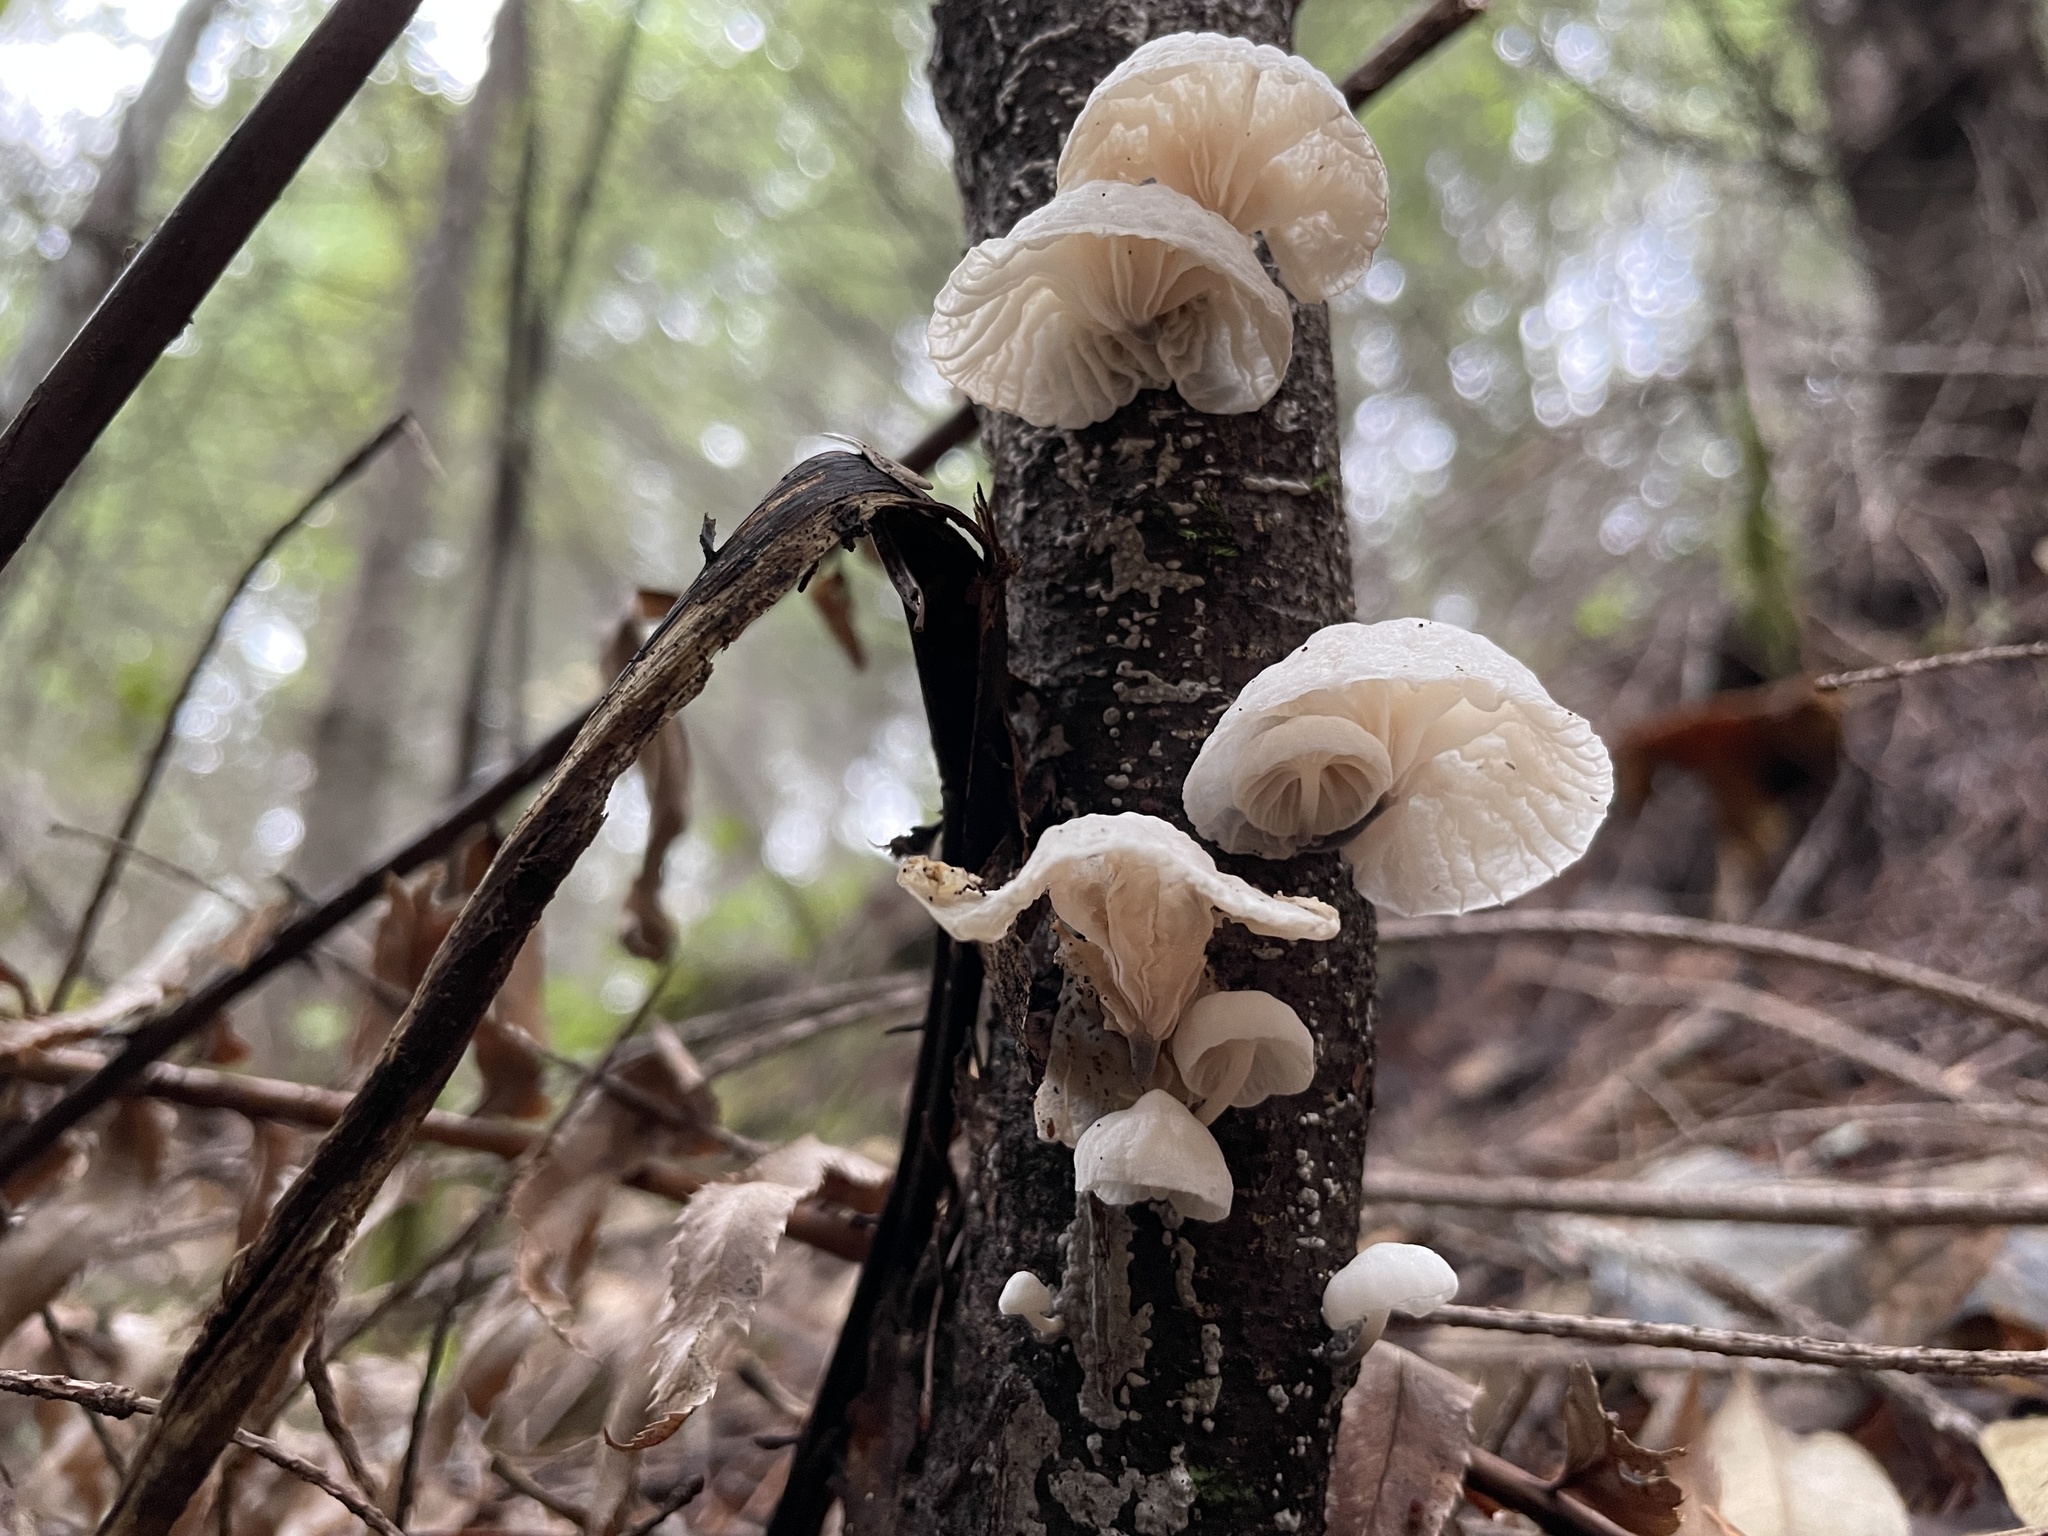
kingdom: Fungi
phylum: Basidiomycota
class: Agaricomycetes
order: Agaricales
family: Omphalotaceae
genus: Marasmiellus
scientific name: Marasmiellus candidus
